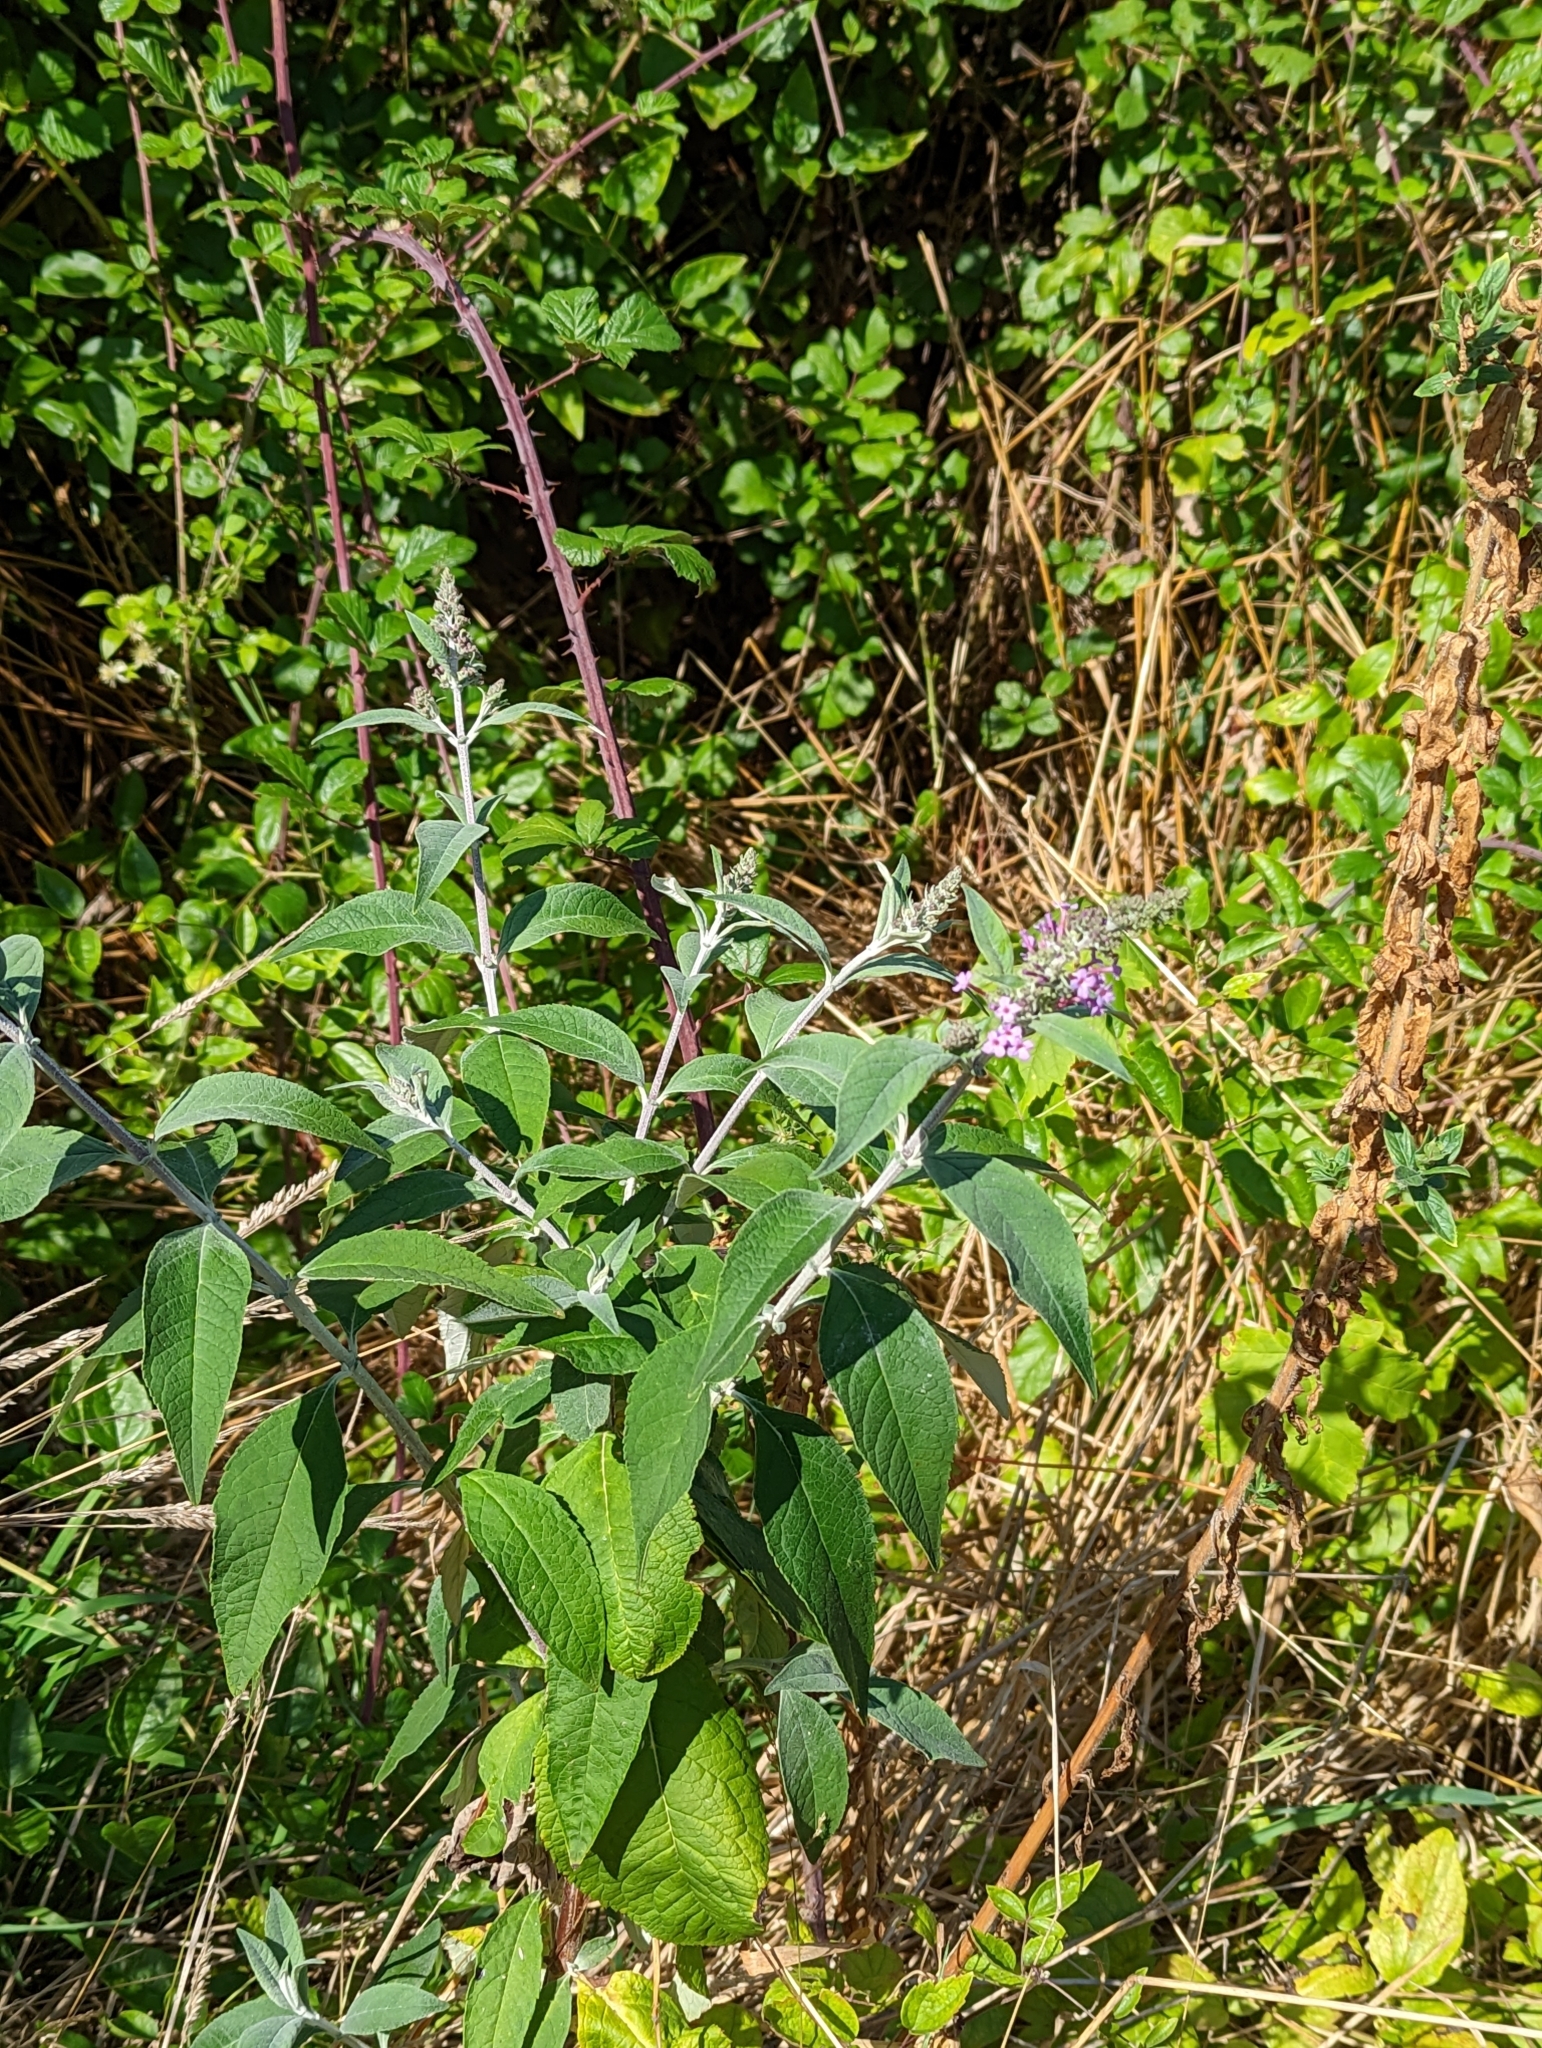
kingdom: Plantae
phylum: Tracheophyta
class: Magnoliopsida
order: Lamiales
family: Scrophulariaceae
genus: Buddleja
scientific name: Buddleja davidii
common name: Butterfly-bush
